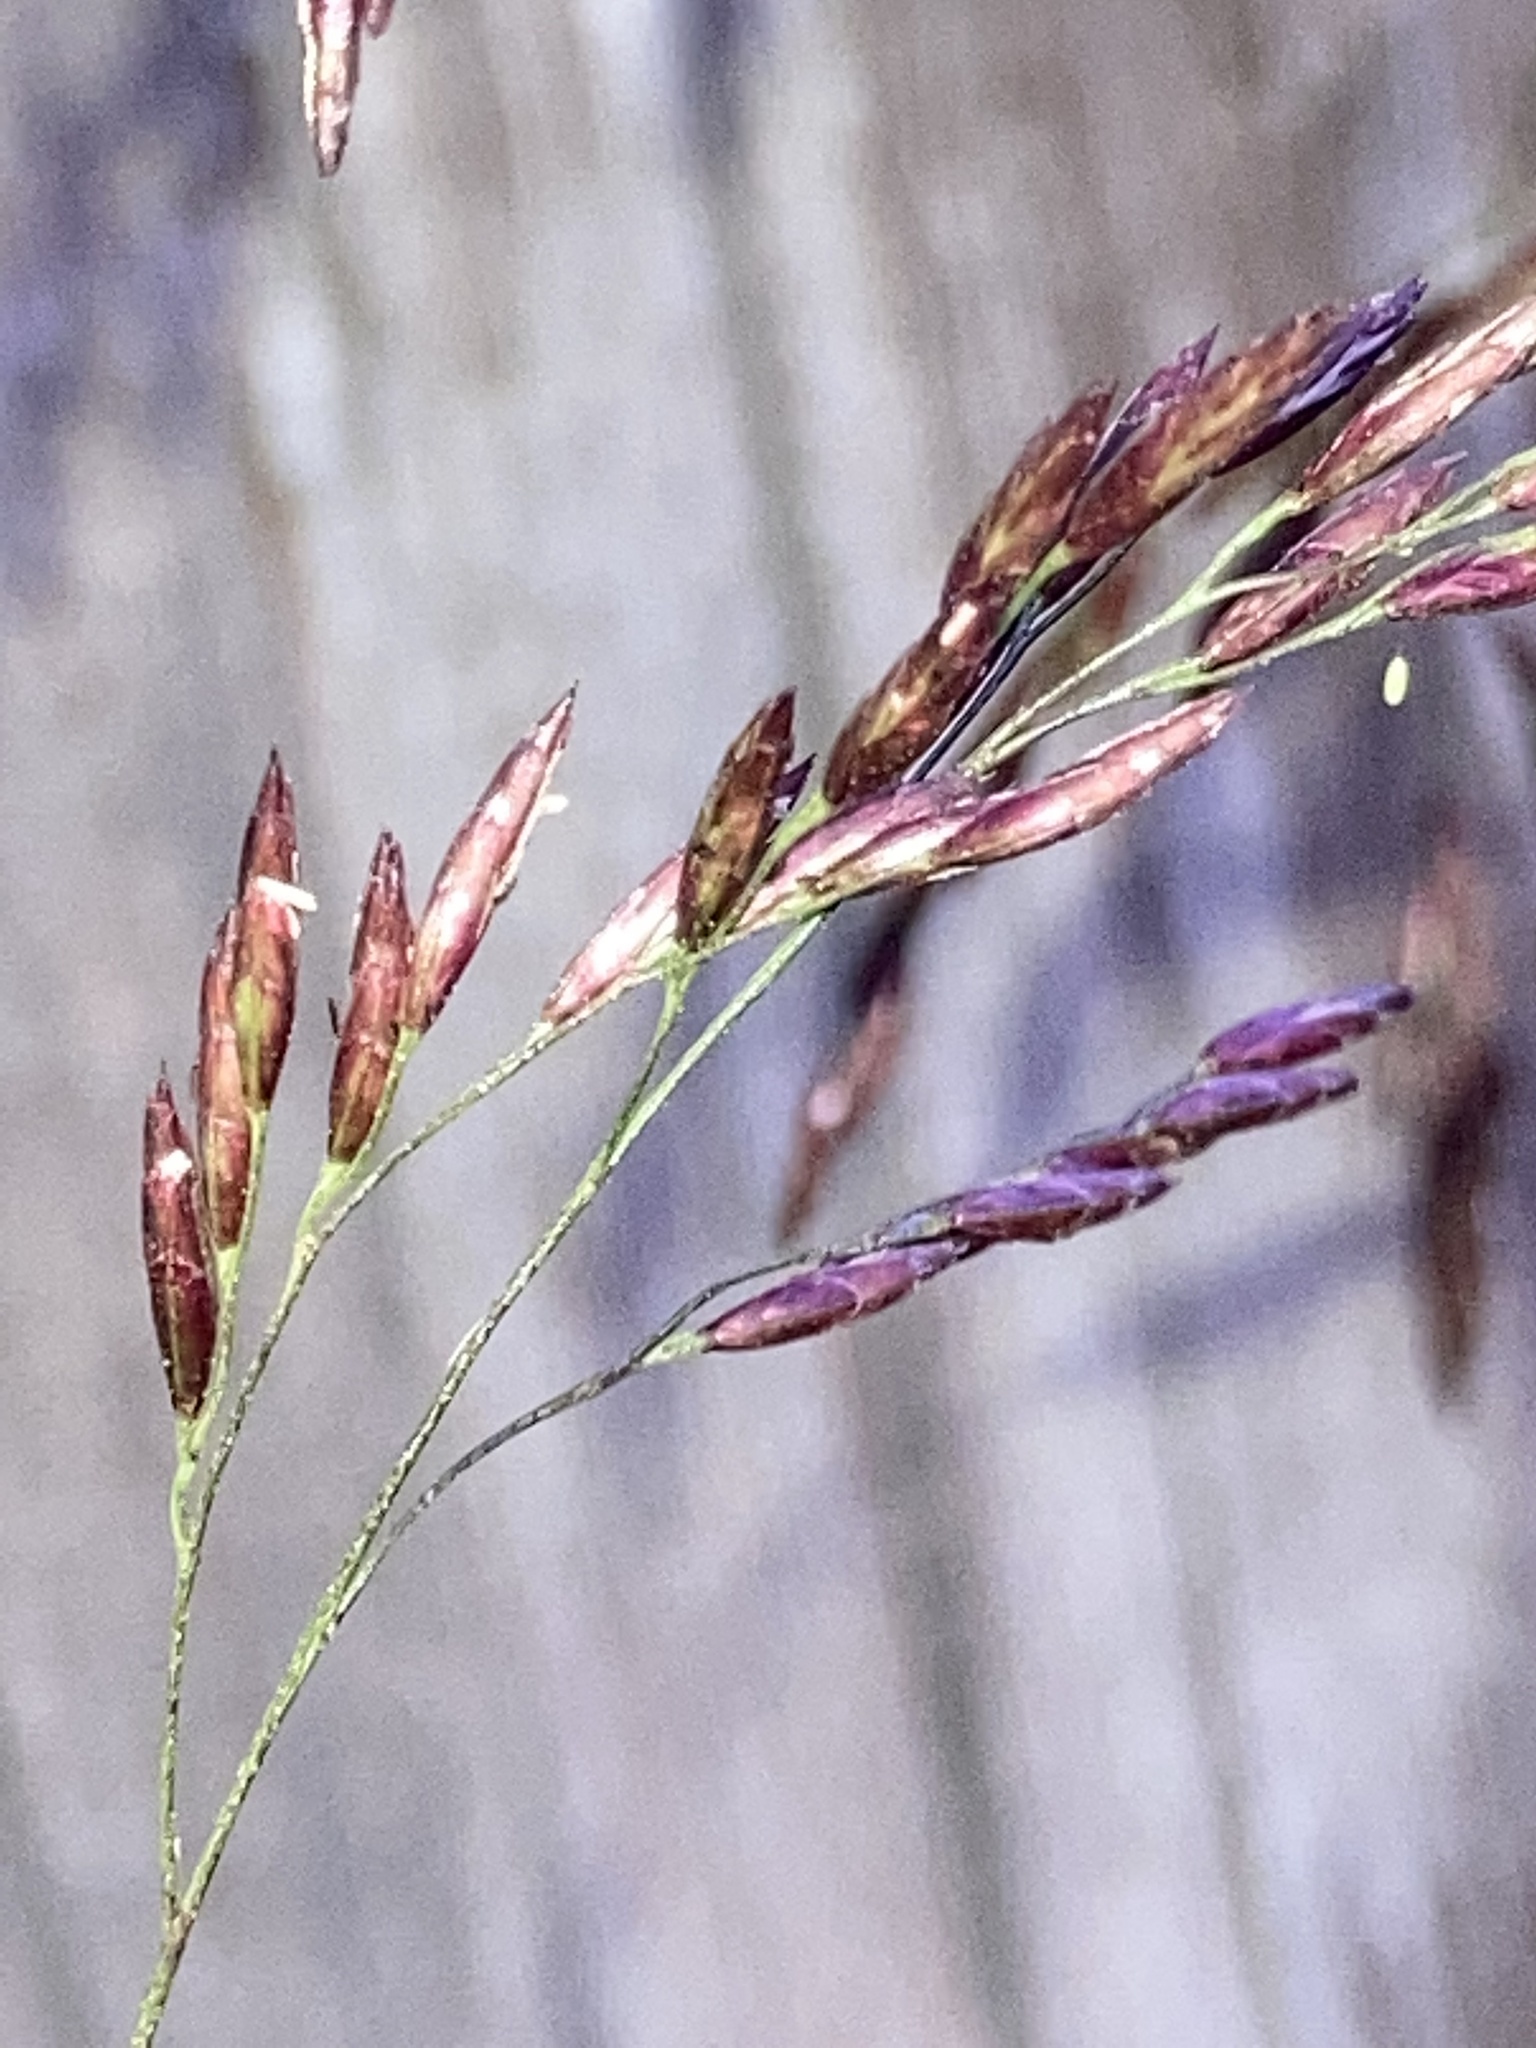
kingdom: Plantae
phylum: Tracheophyta
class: Liliopsida
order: Poales
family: Poaceae
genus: Tridens
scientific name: Tridens flavus
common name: Purpletop
